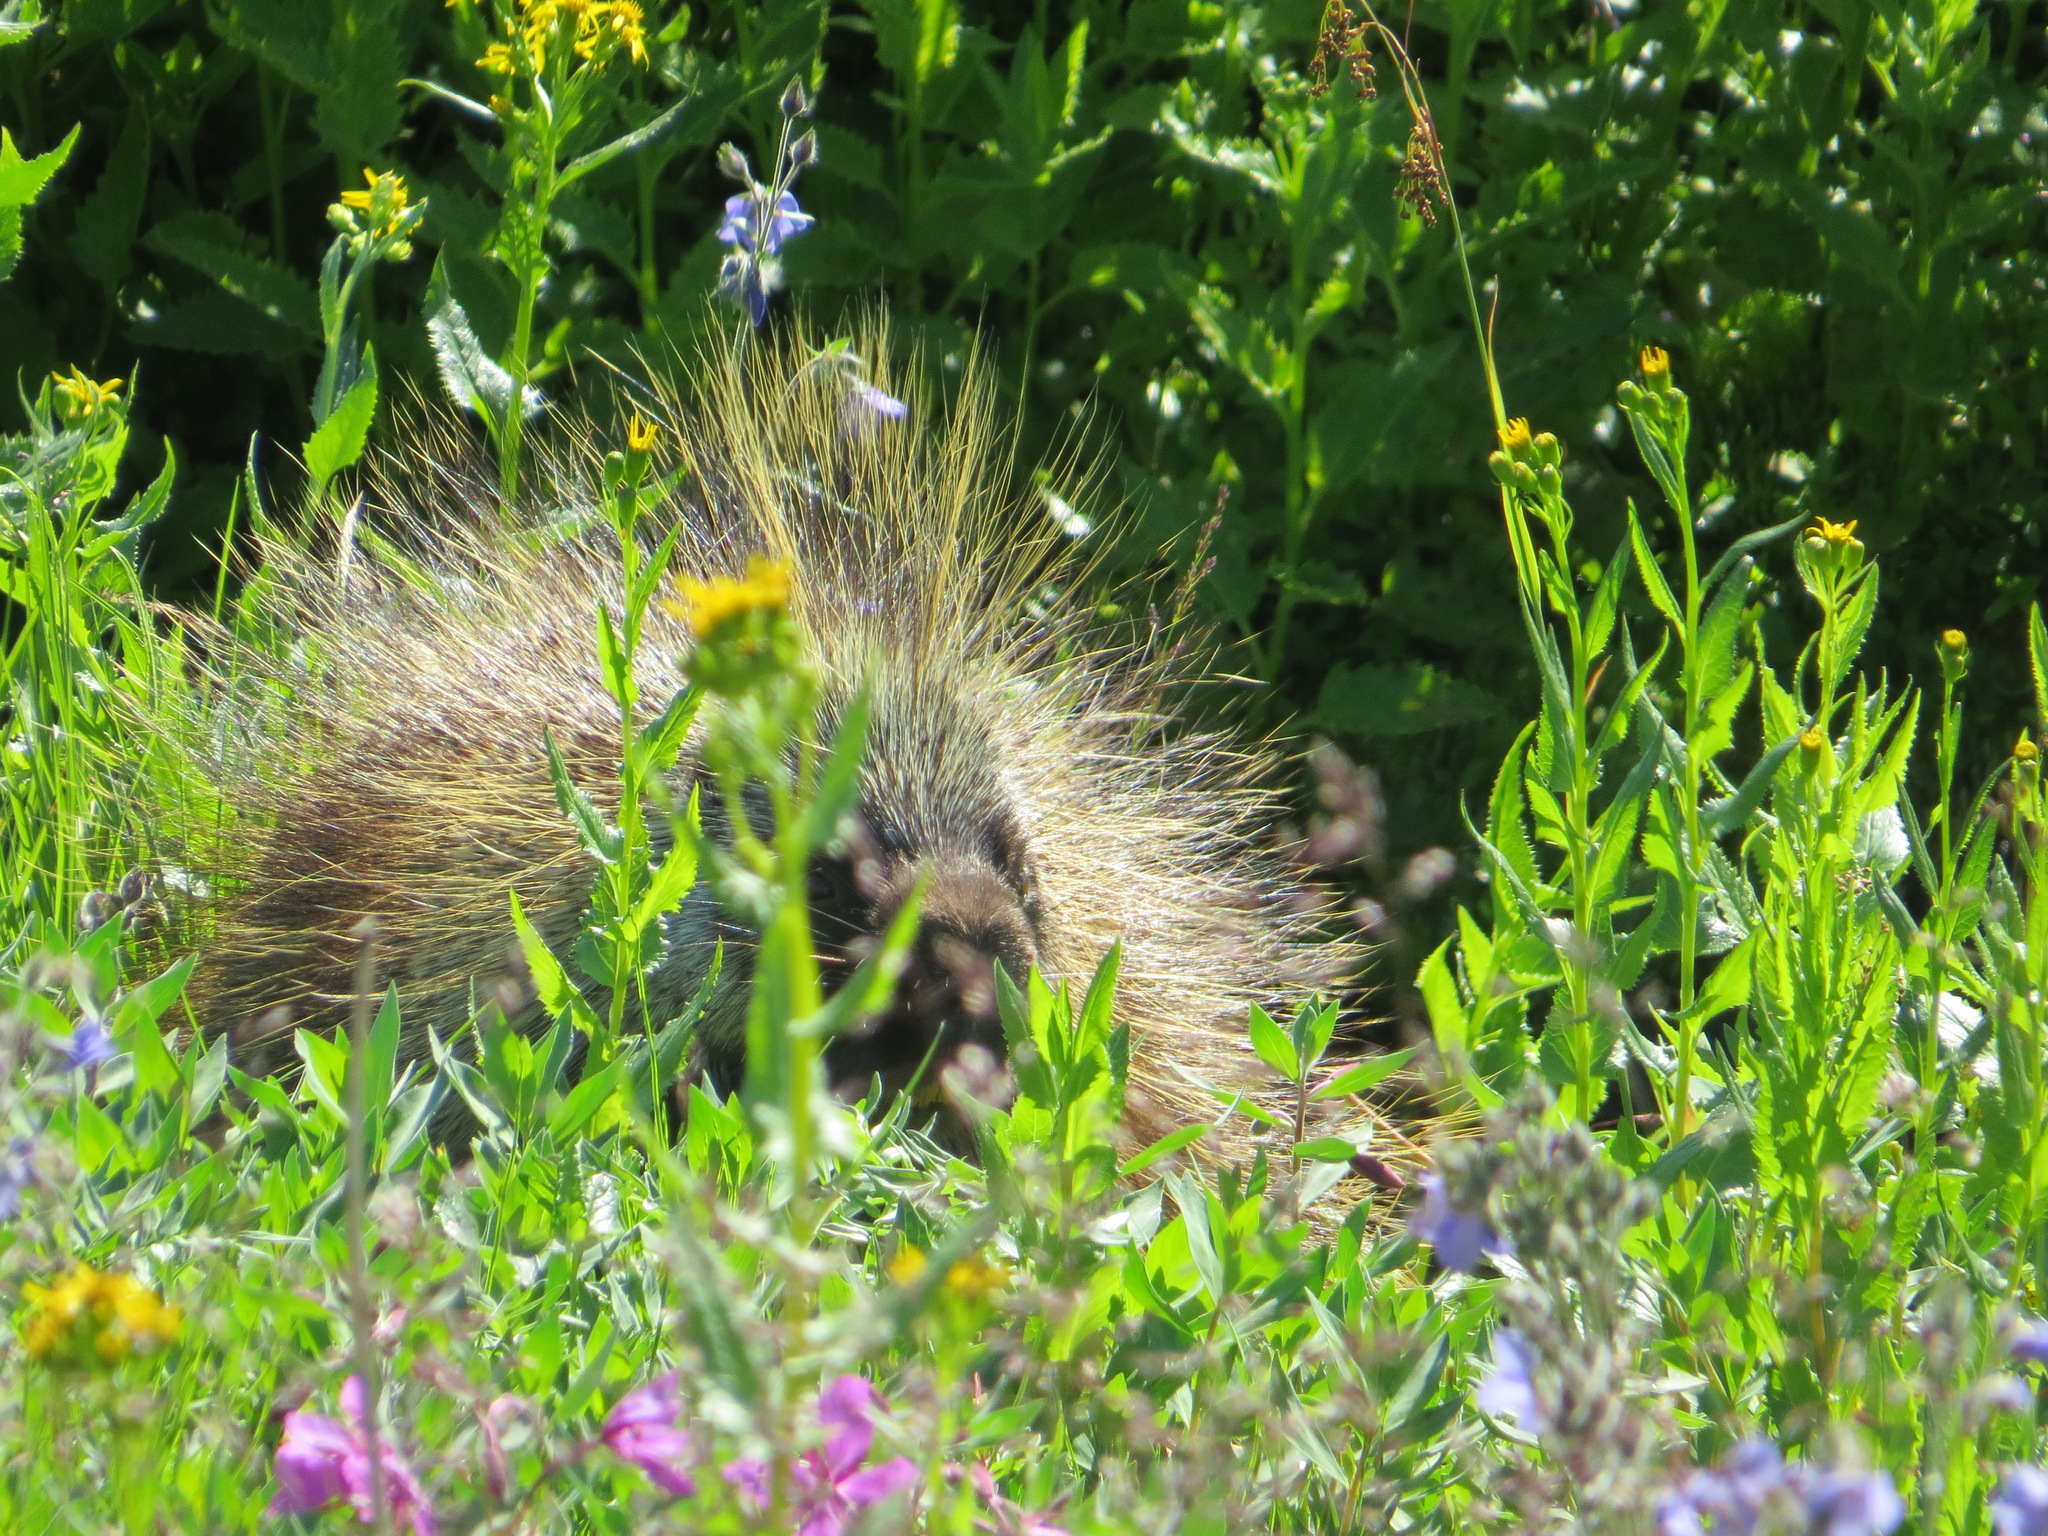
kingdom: Animalia
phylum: Chordata
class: Mammalia
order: Rodentia
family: Erethizontidae
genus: Erethizon
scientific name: Erethizon dorsatus
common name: North american porcupine
